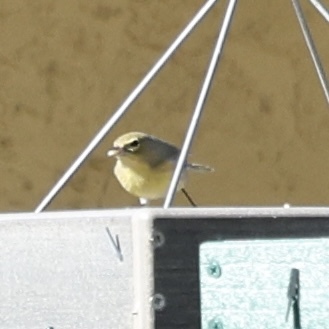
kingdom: Animalia
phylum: Chordata
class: Aves
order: Passeriformes
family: Parulidae
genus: Setophaga
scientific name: Setophaga pinus
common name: Pine warbler
